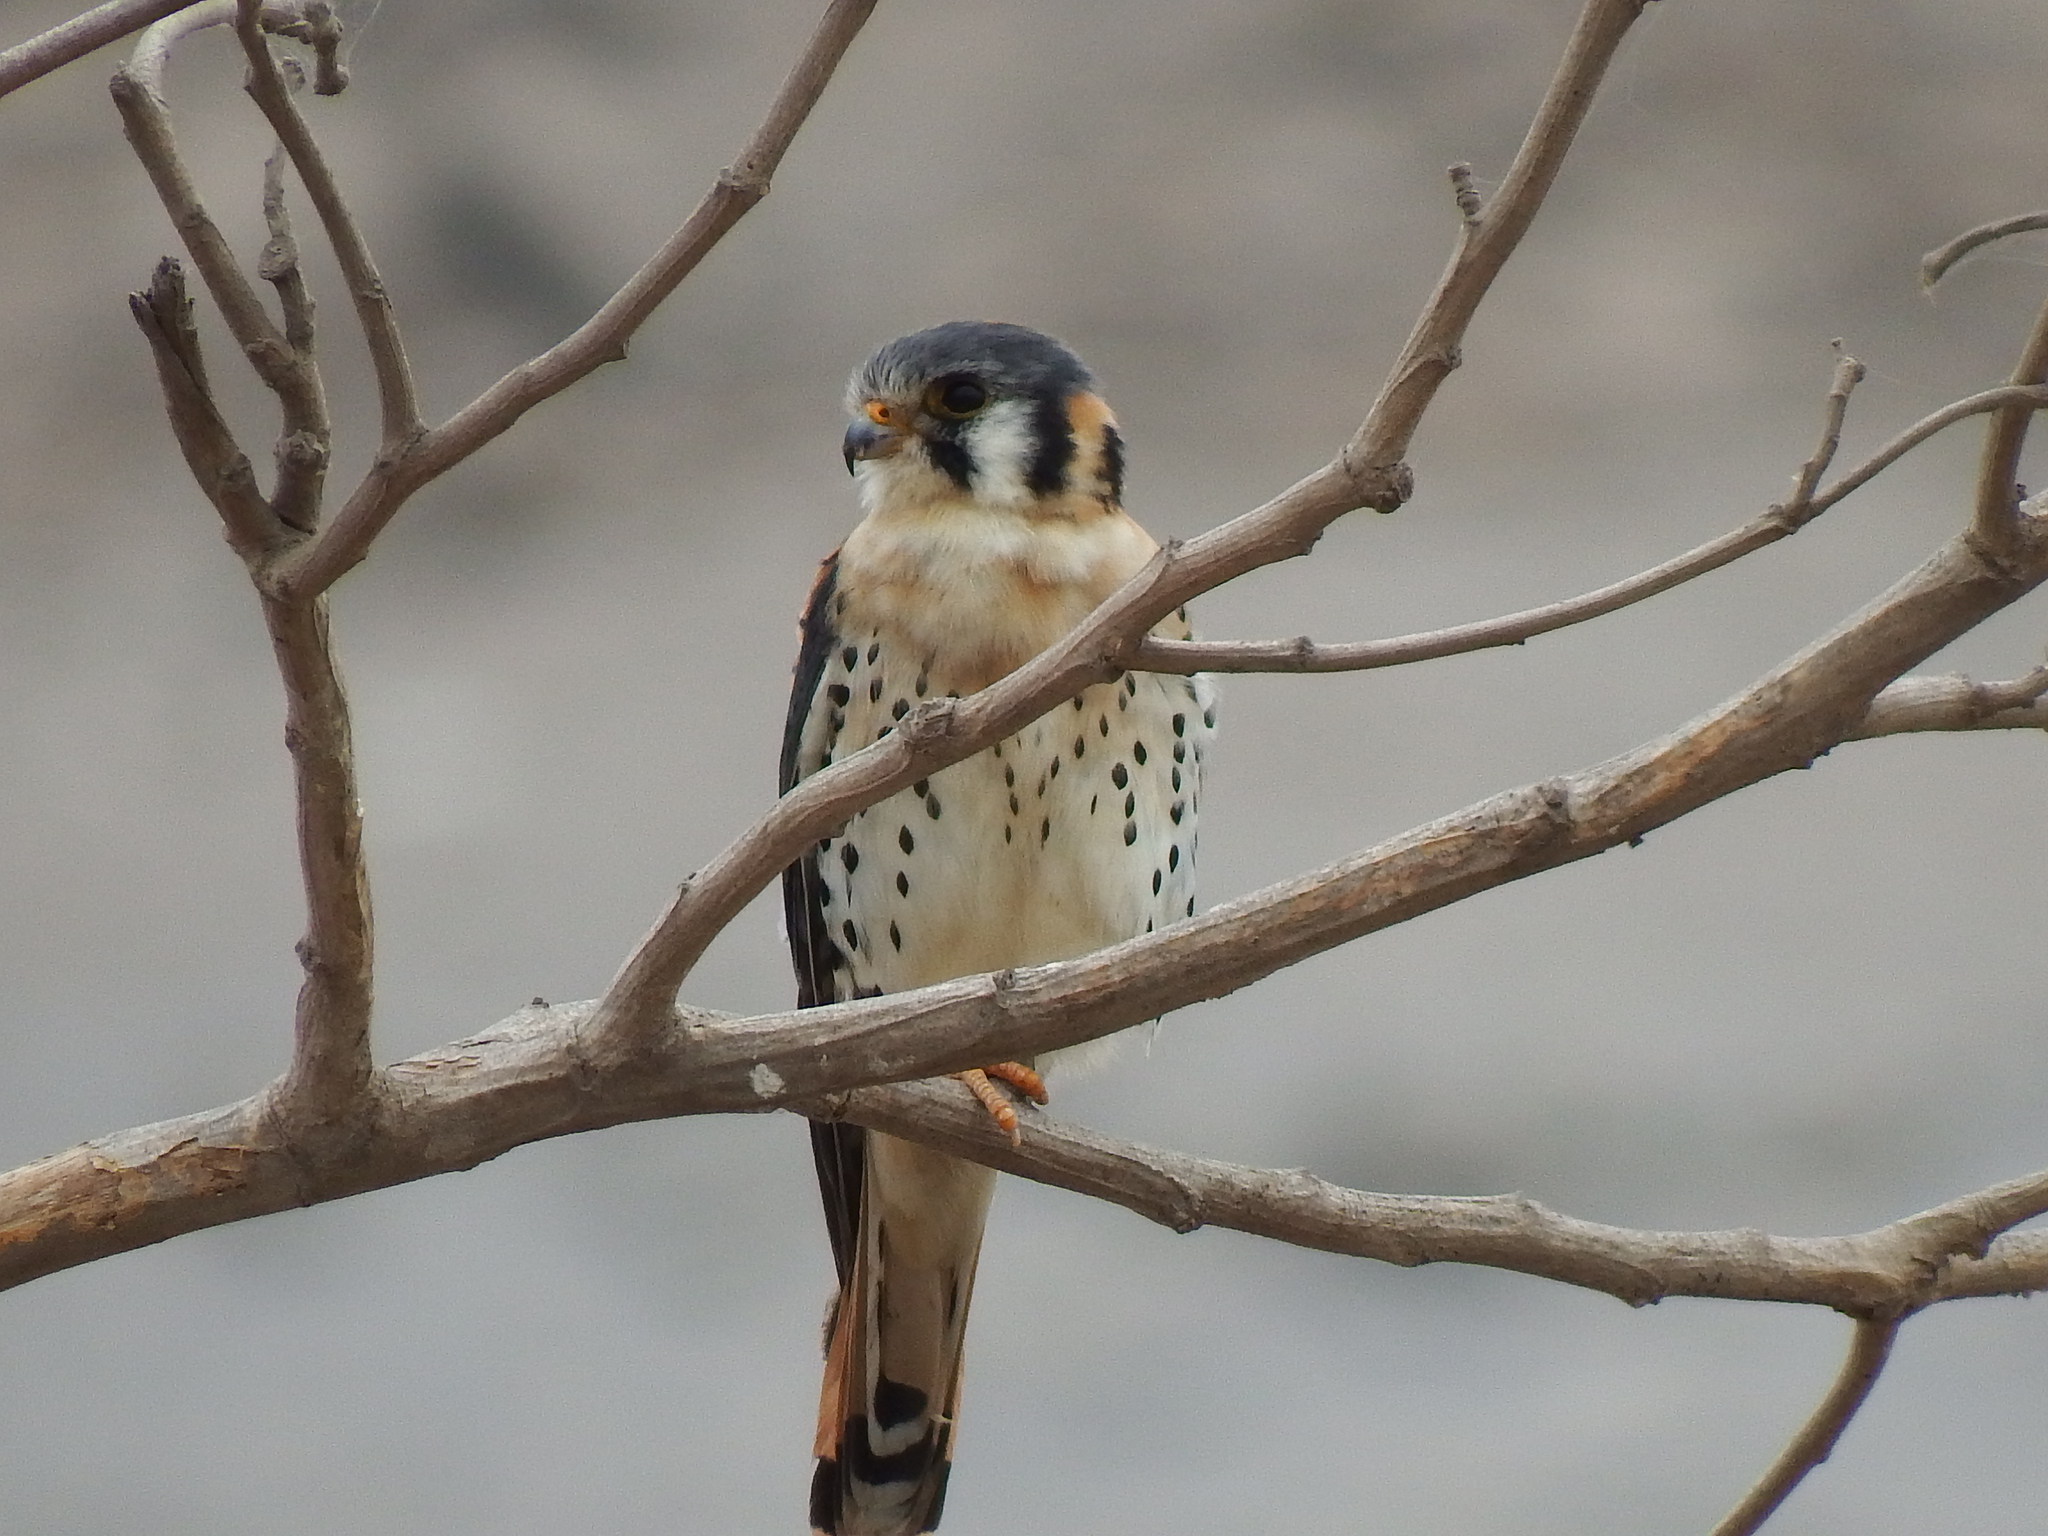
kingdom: Animalia
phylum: Chordata
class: Aves
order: Falconiformes
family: Falconidae
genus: Falco
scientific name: Falco sparverius
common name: American kestrel
